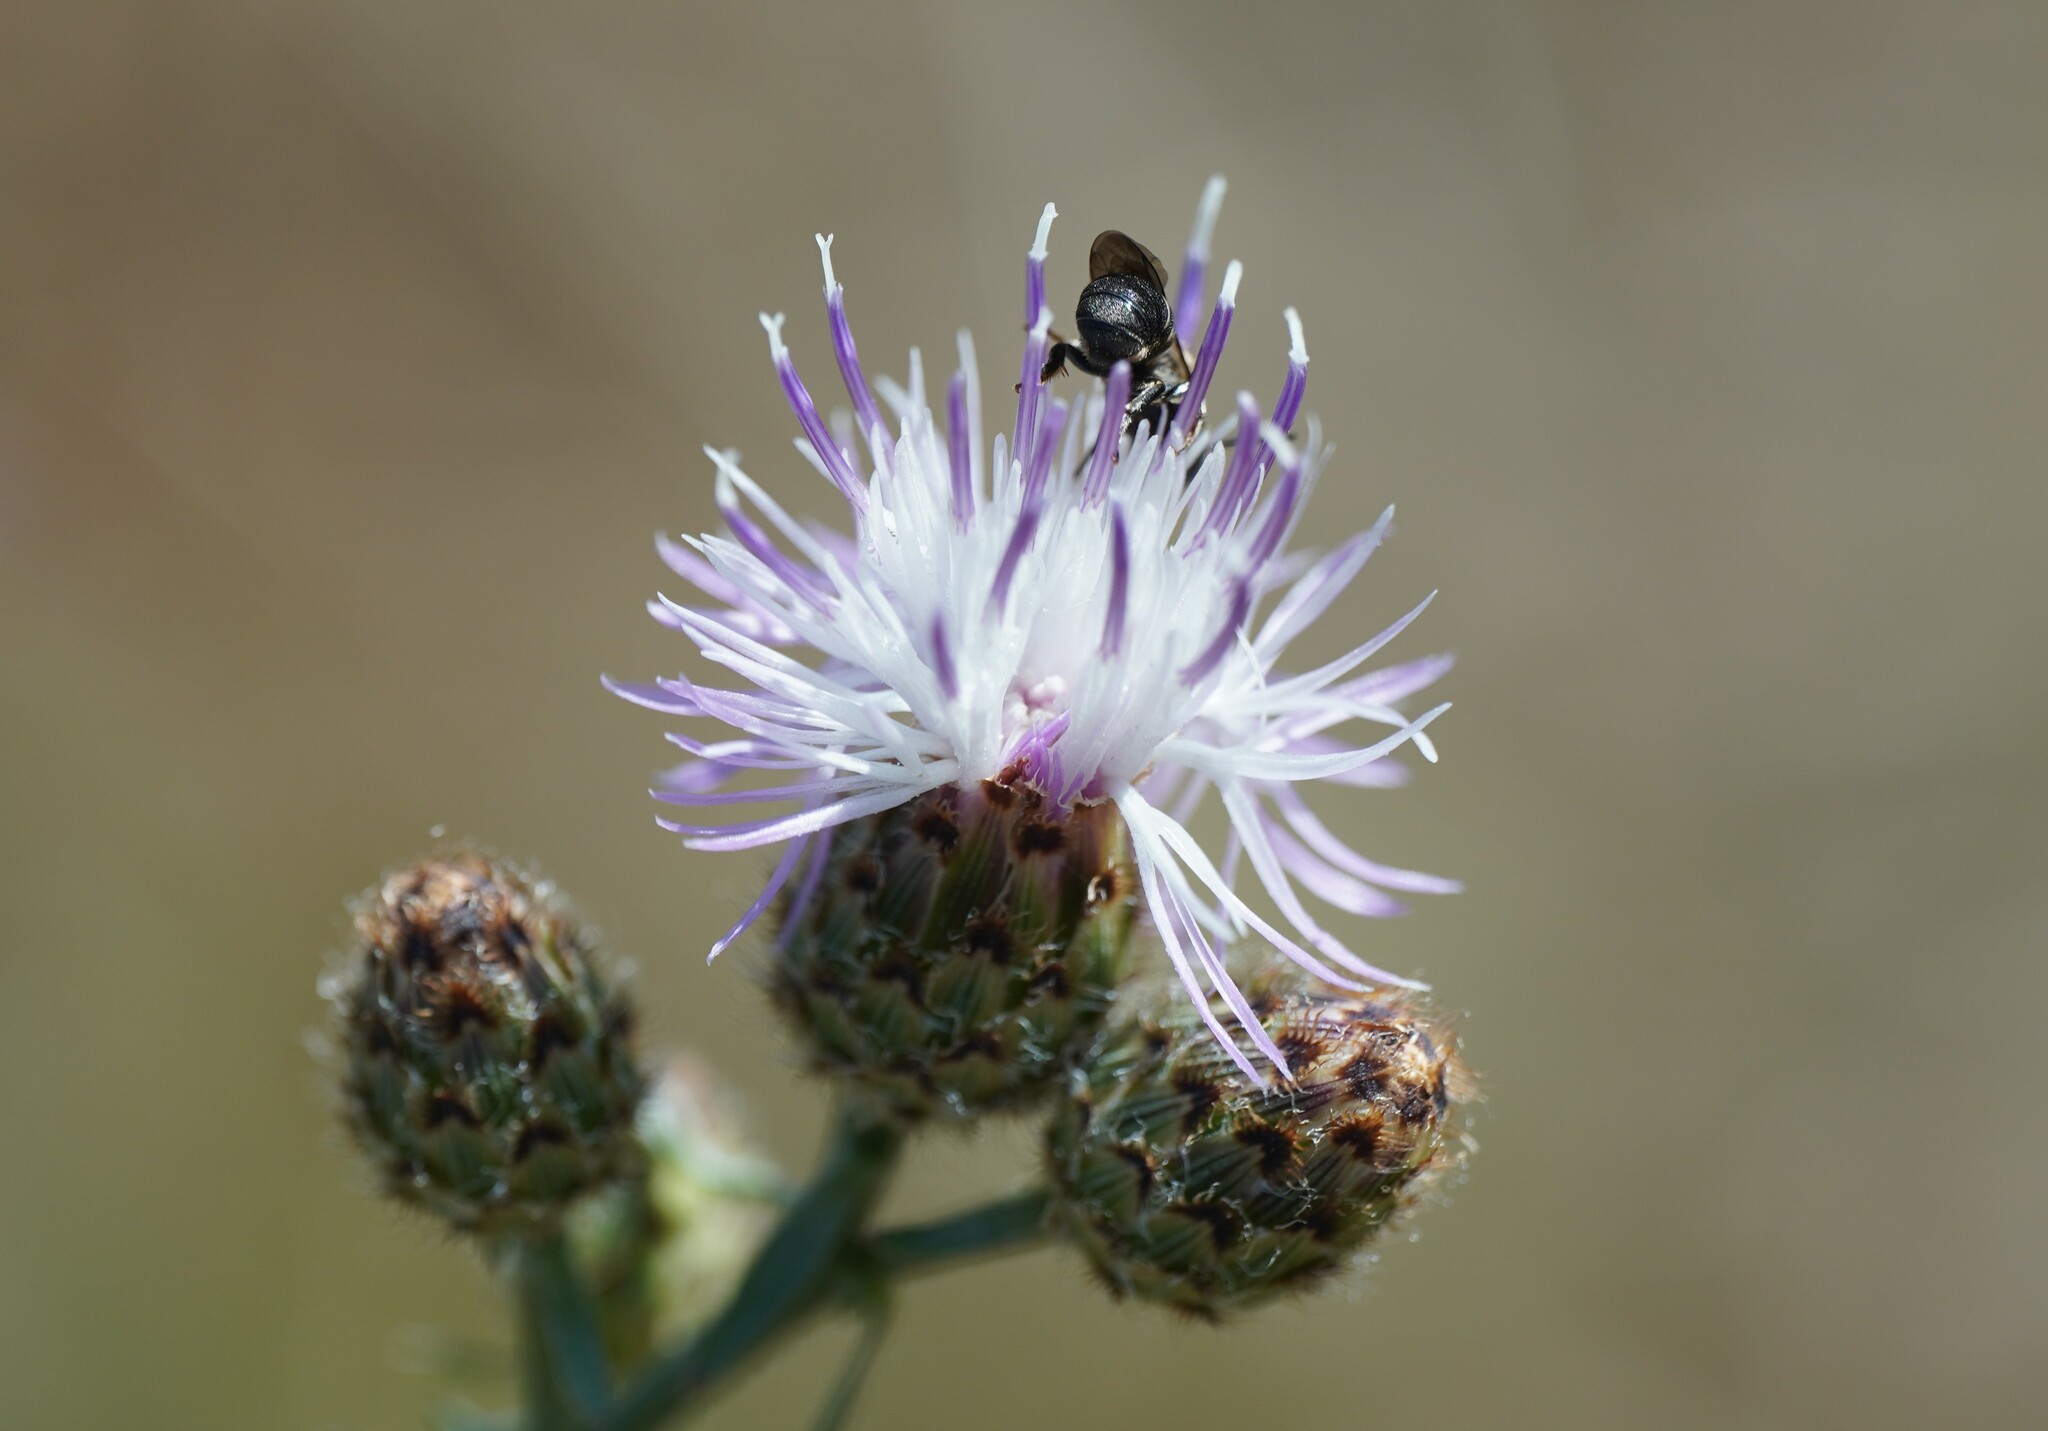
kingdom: Plantae
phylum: Tracheophyta
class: Magnoliopsida
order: Asterales
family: Asteraceae
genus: Centaurea
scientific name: Centaurea stoebe
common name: Spotted knapweed
